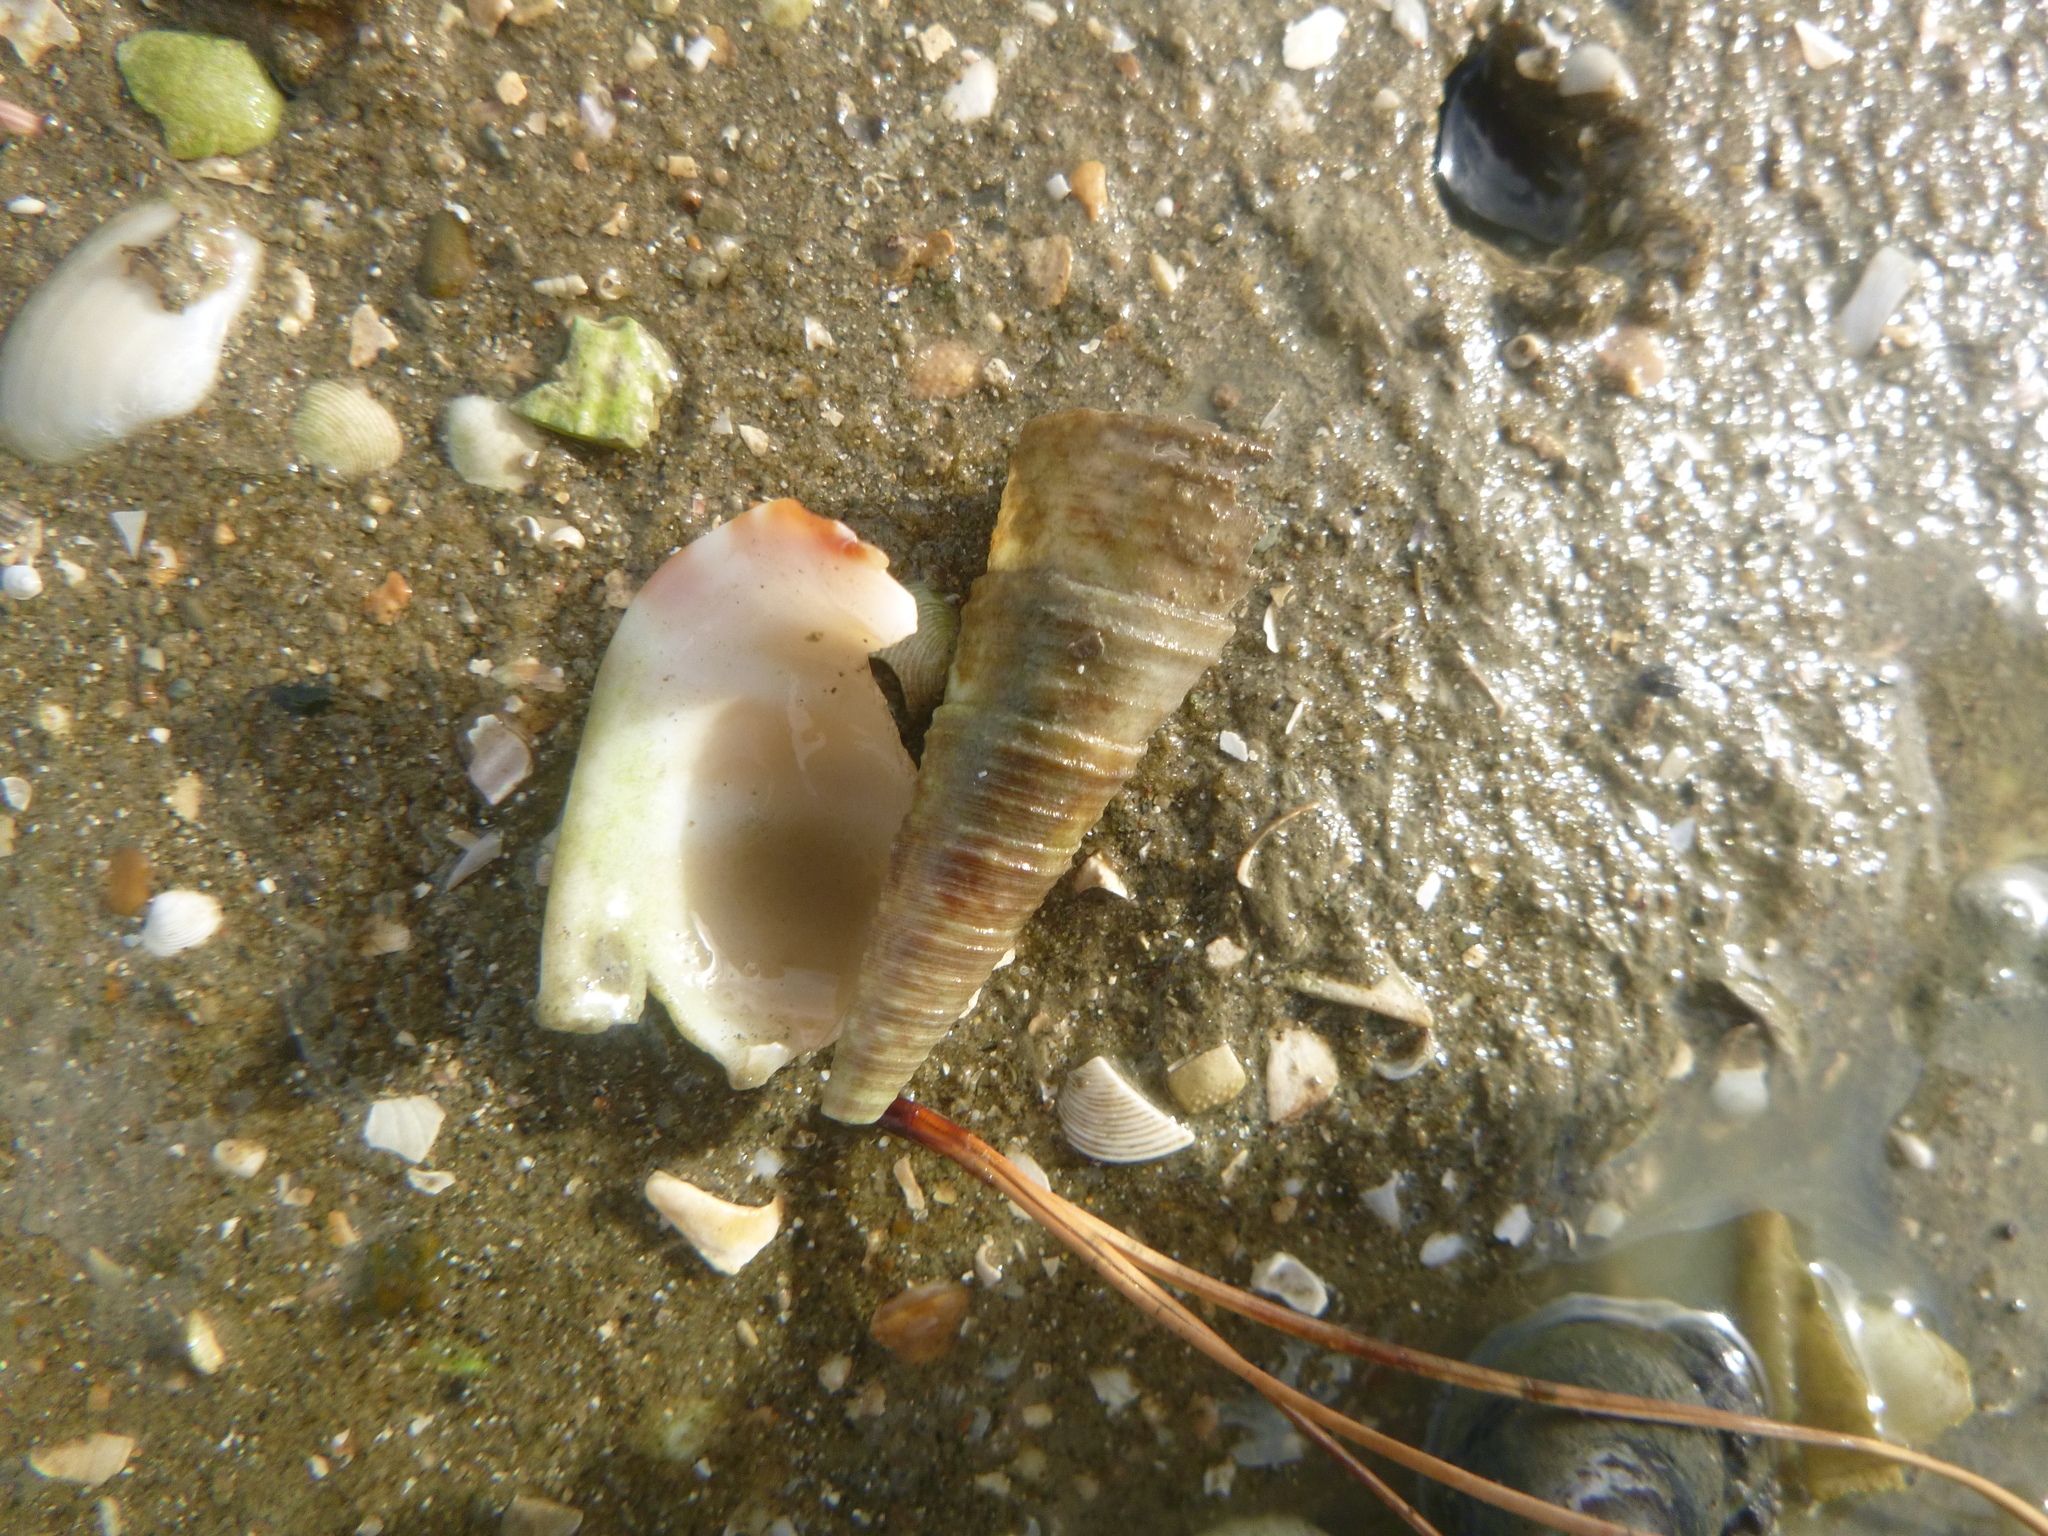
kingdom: Animalia
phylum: Mollusca
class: Gastropoda
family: Turritellidae
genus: Maoricolpus
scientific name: Maoricolpus roseus
